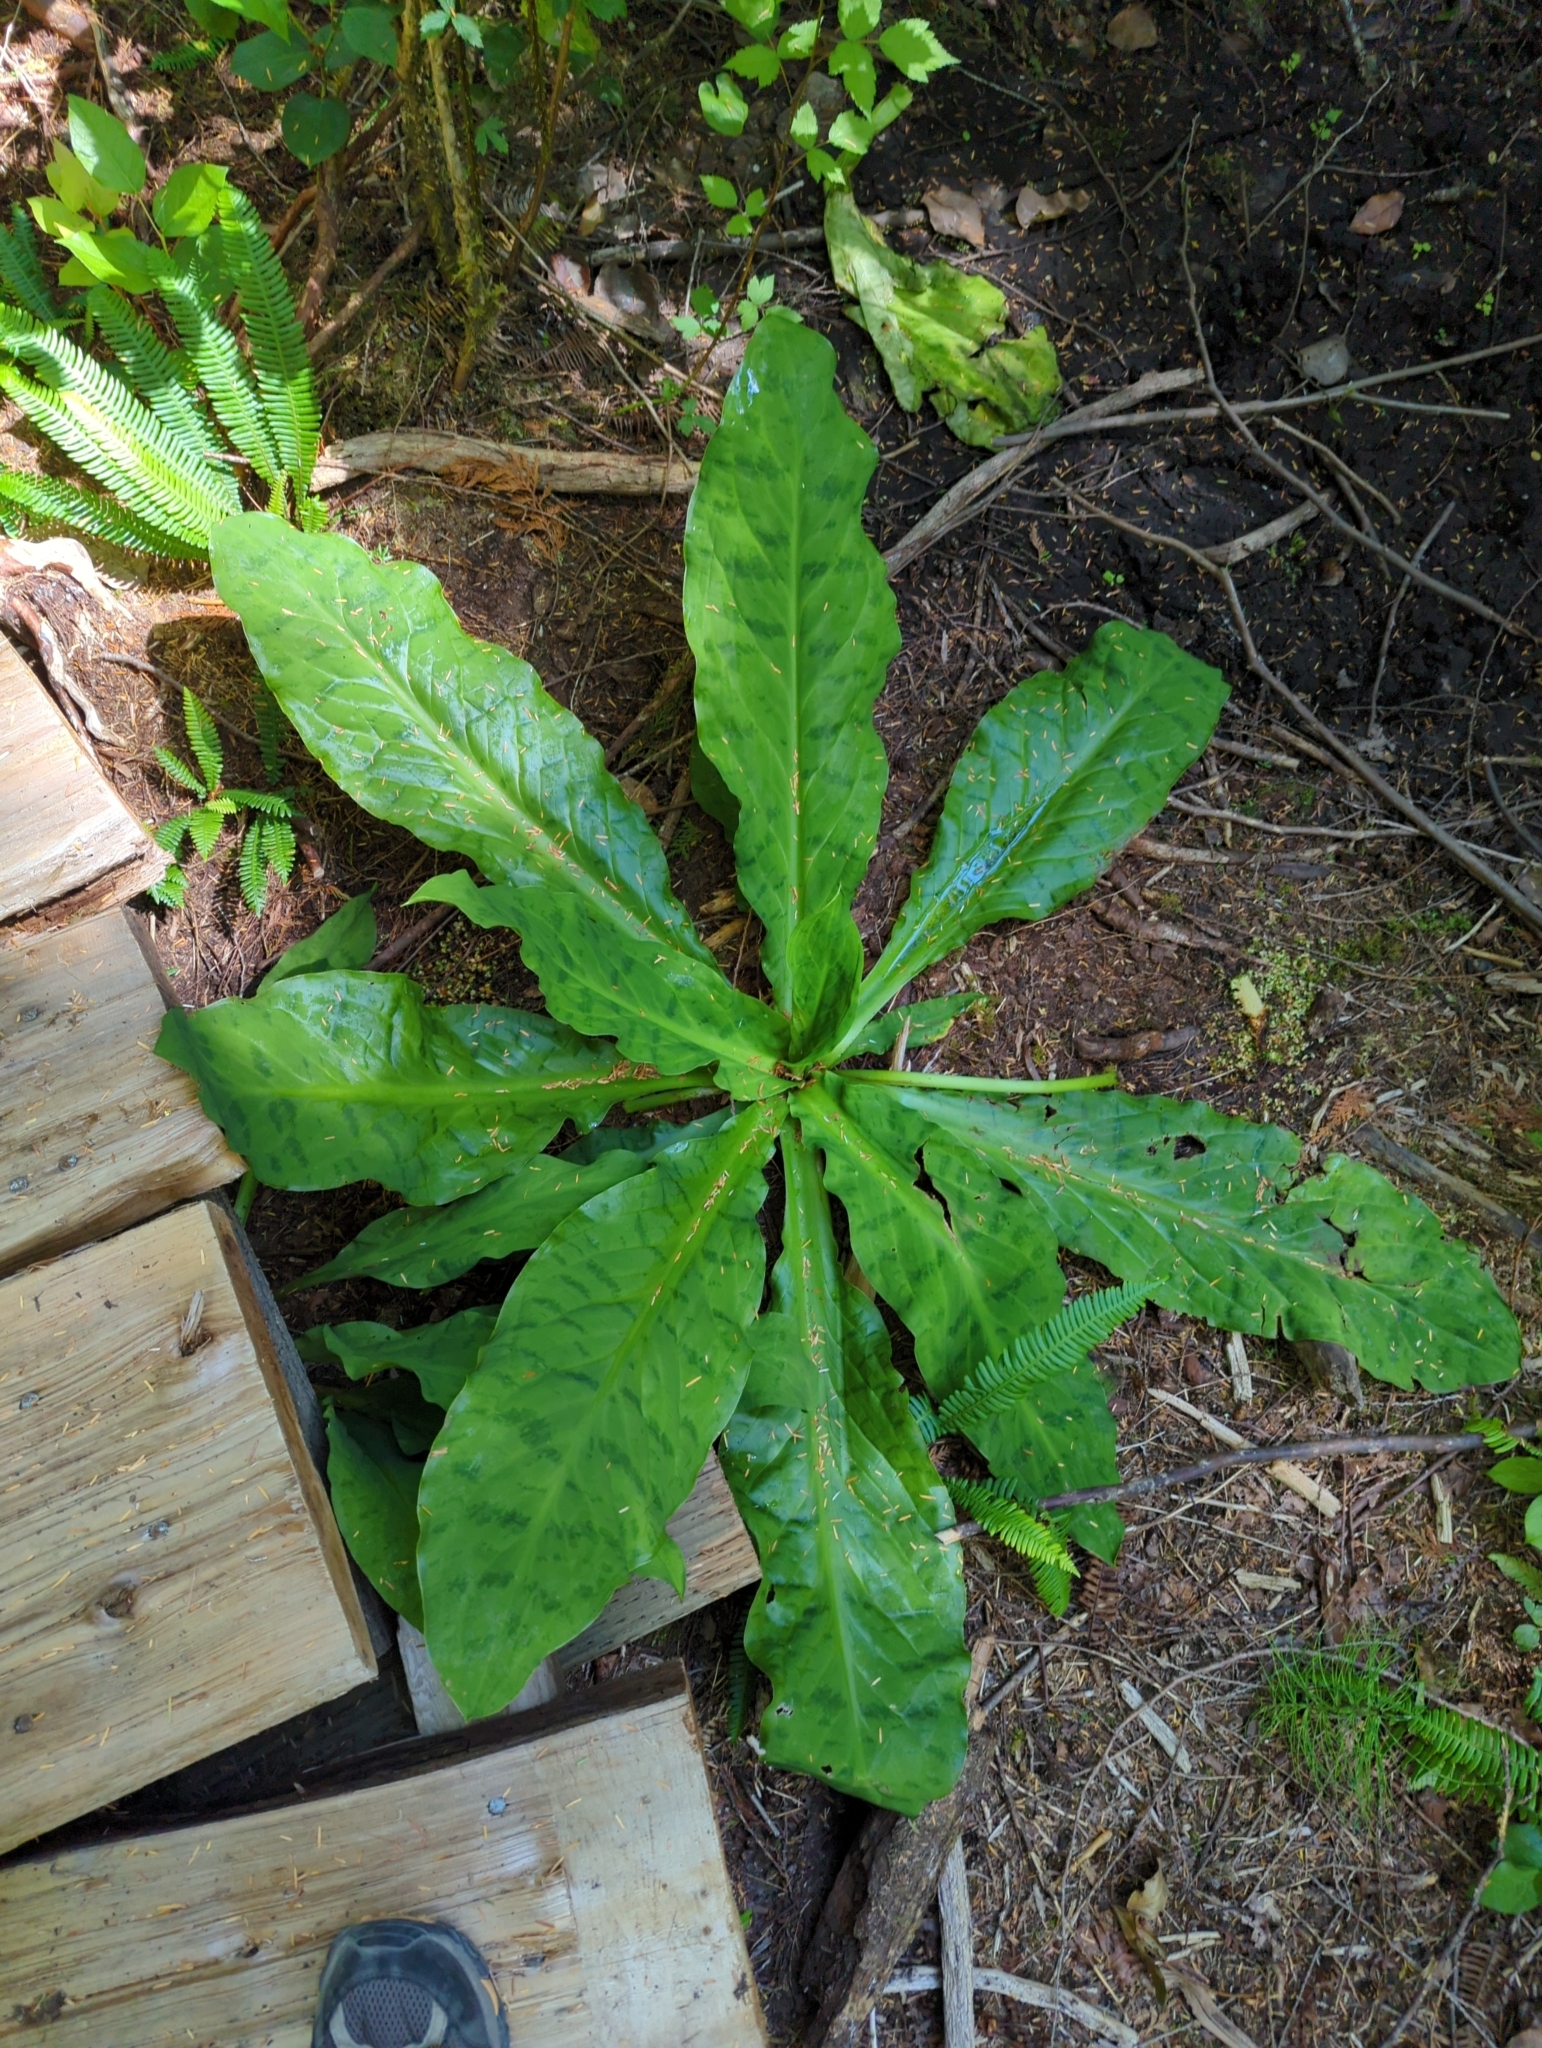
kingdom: Plantae
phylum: Tracheophyta
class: Liliopsida
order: Alismatales
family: Araceae
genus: Lysichiton
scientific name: Lysichiton americanus
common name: American skunk cabbage
